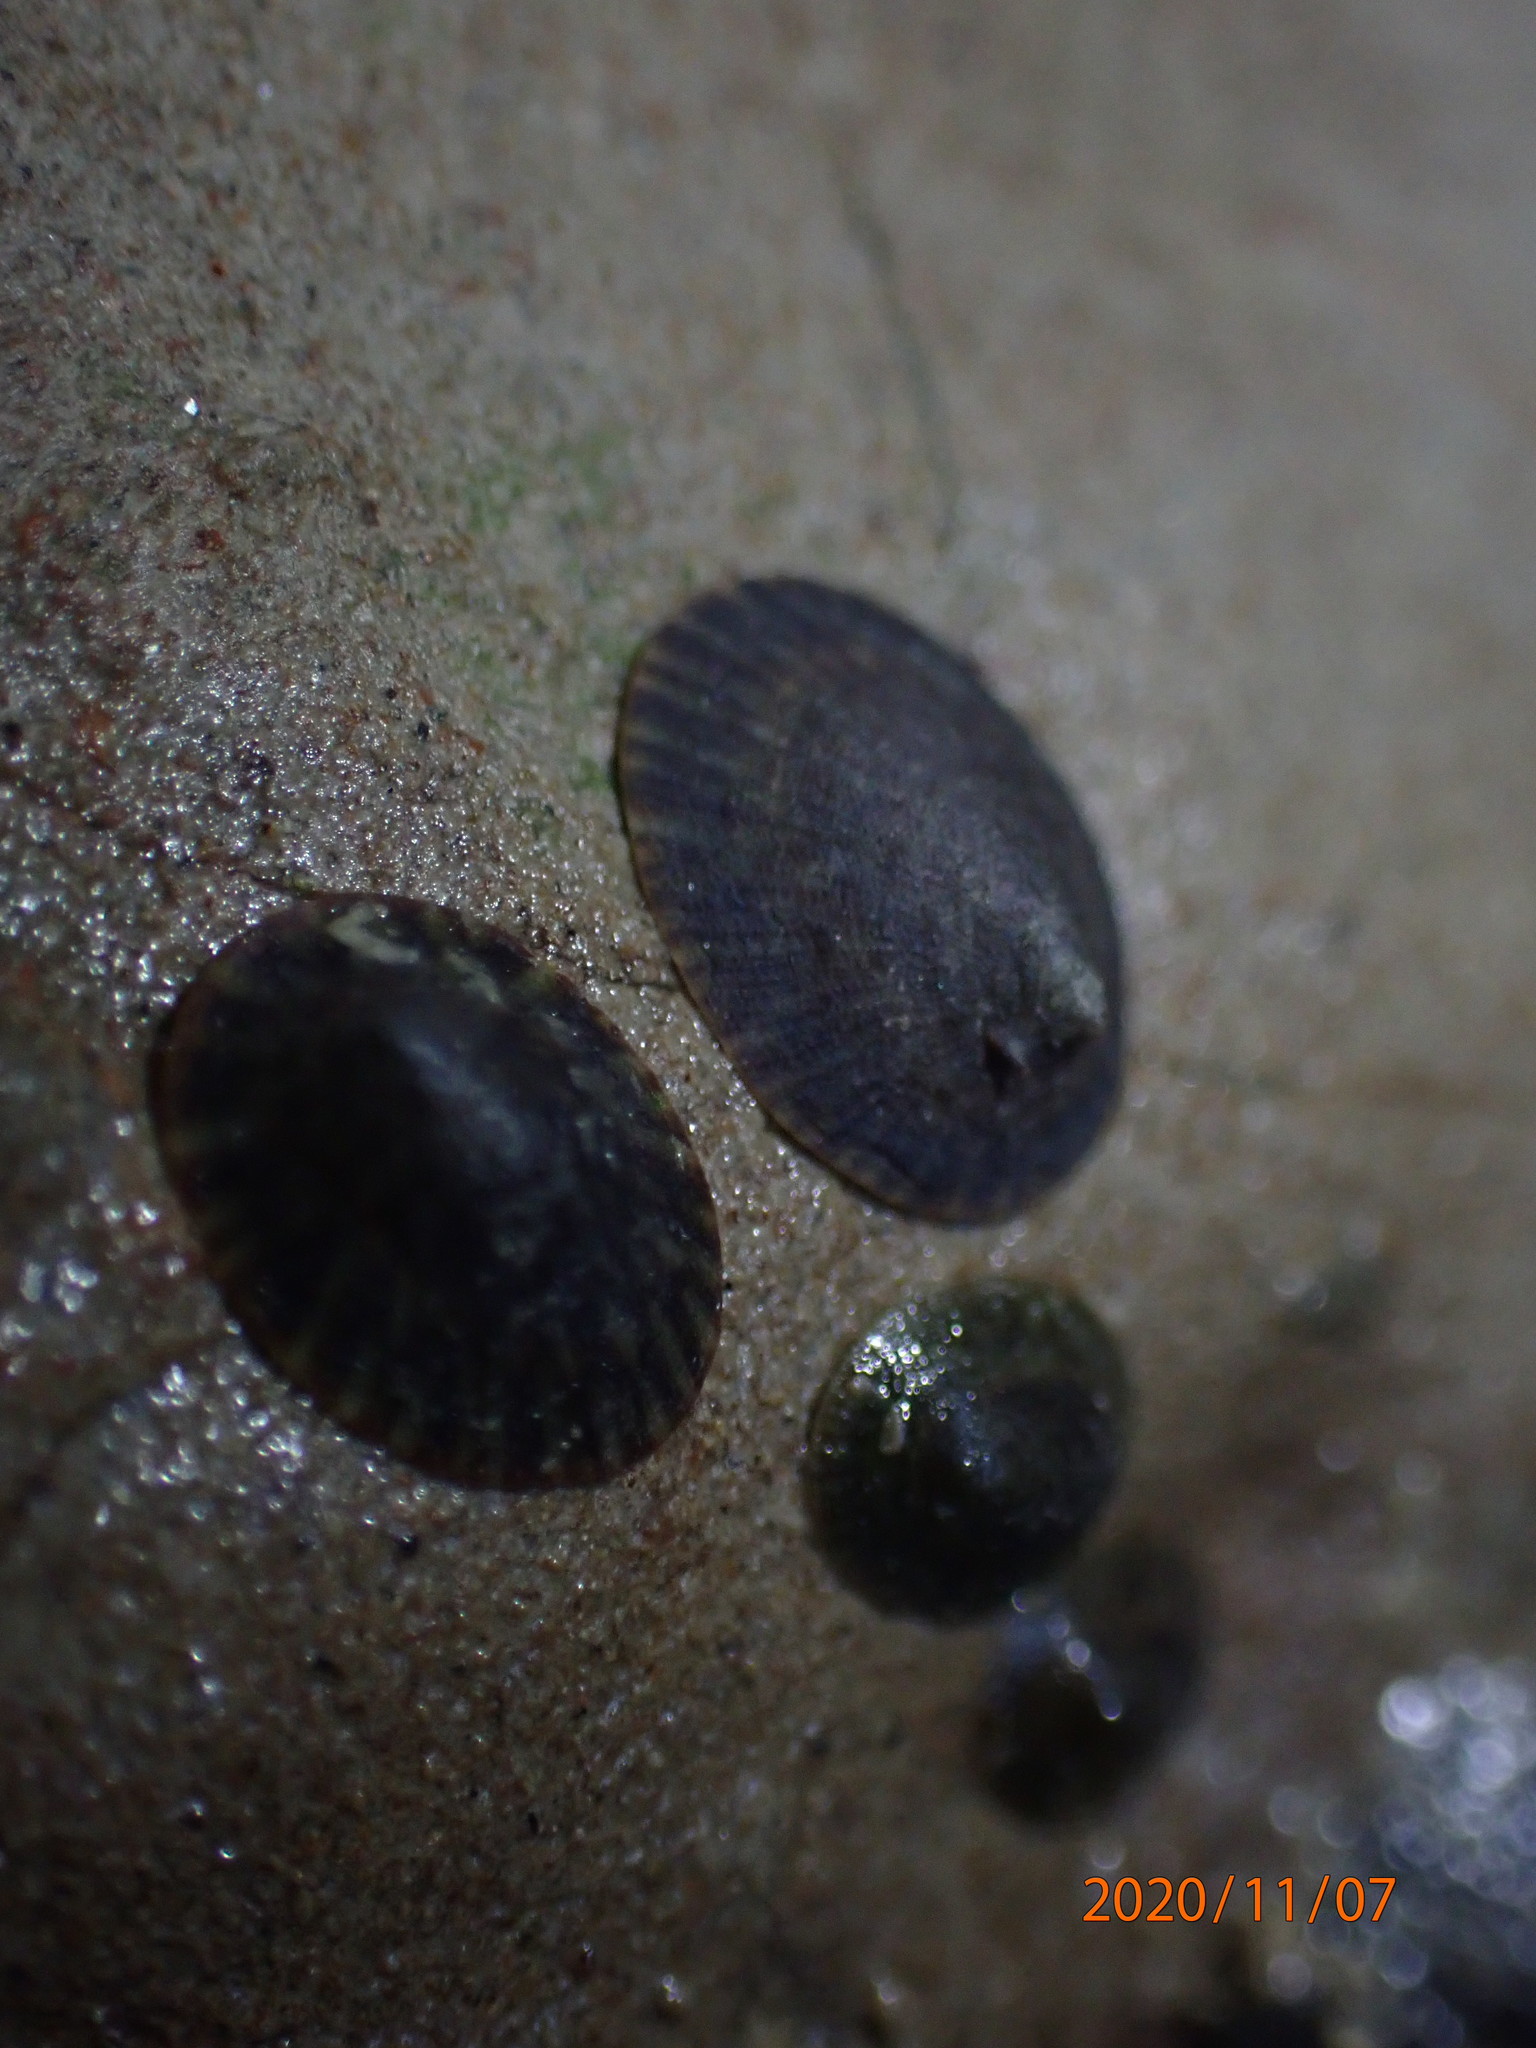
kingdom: Animalia
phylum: Mollusca
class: Gastropoda
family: Lottiidae
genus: Notoacmea
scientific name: Notoacmea elongata
